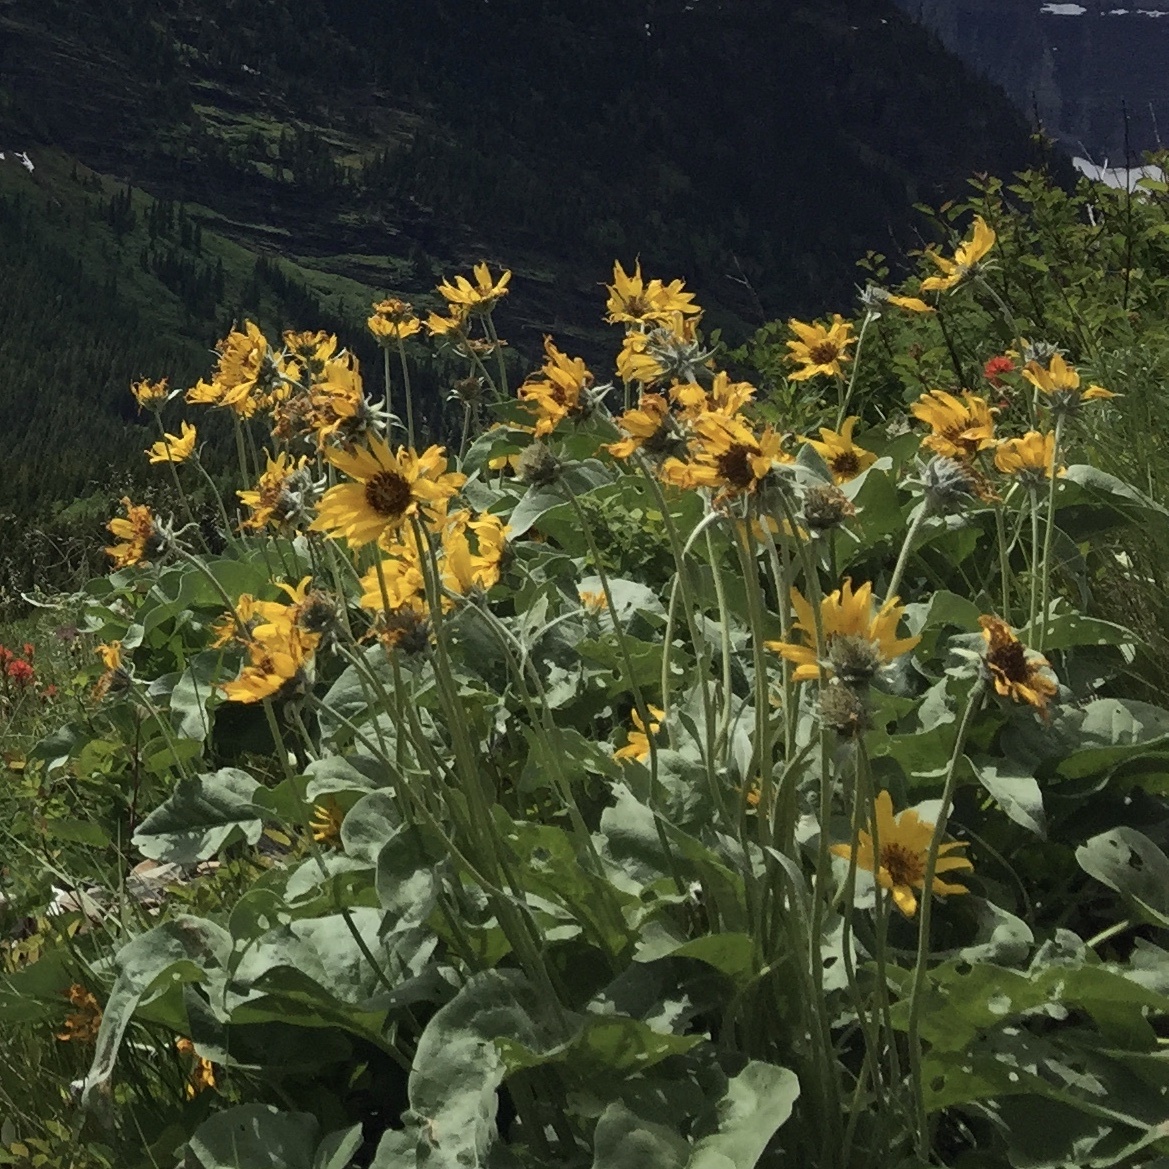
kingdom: Plantae
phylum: Tracheophyta
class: Magnoliopsida
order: Asterales
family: Asteraceae
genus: Wyethia
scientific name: Wyethia sagittata
